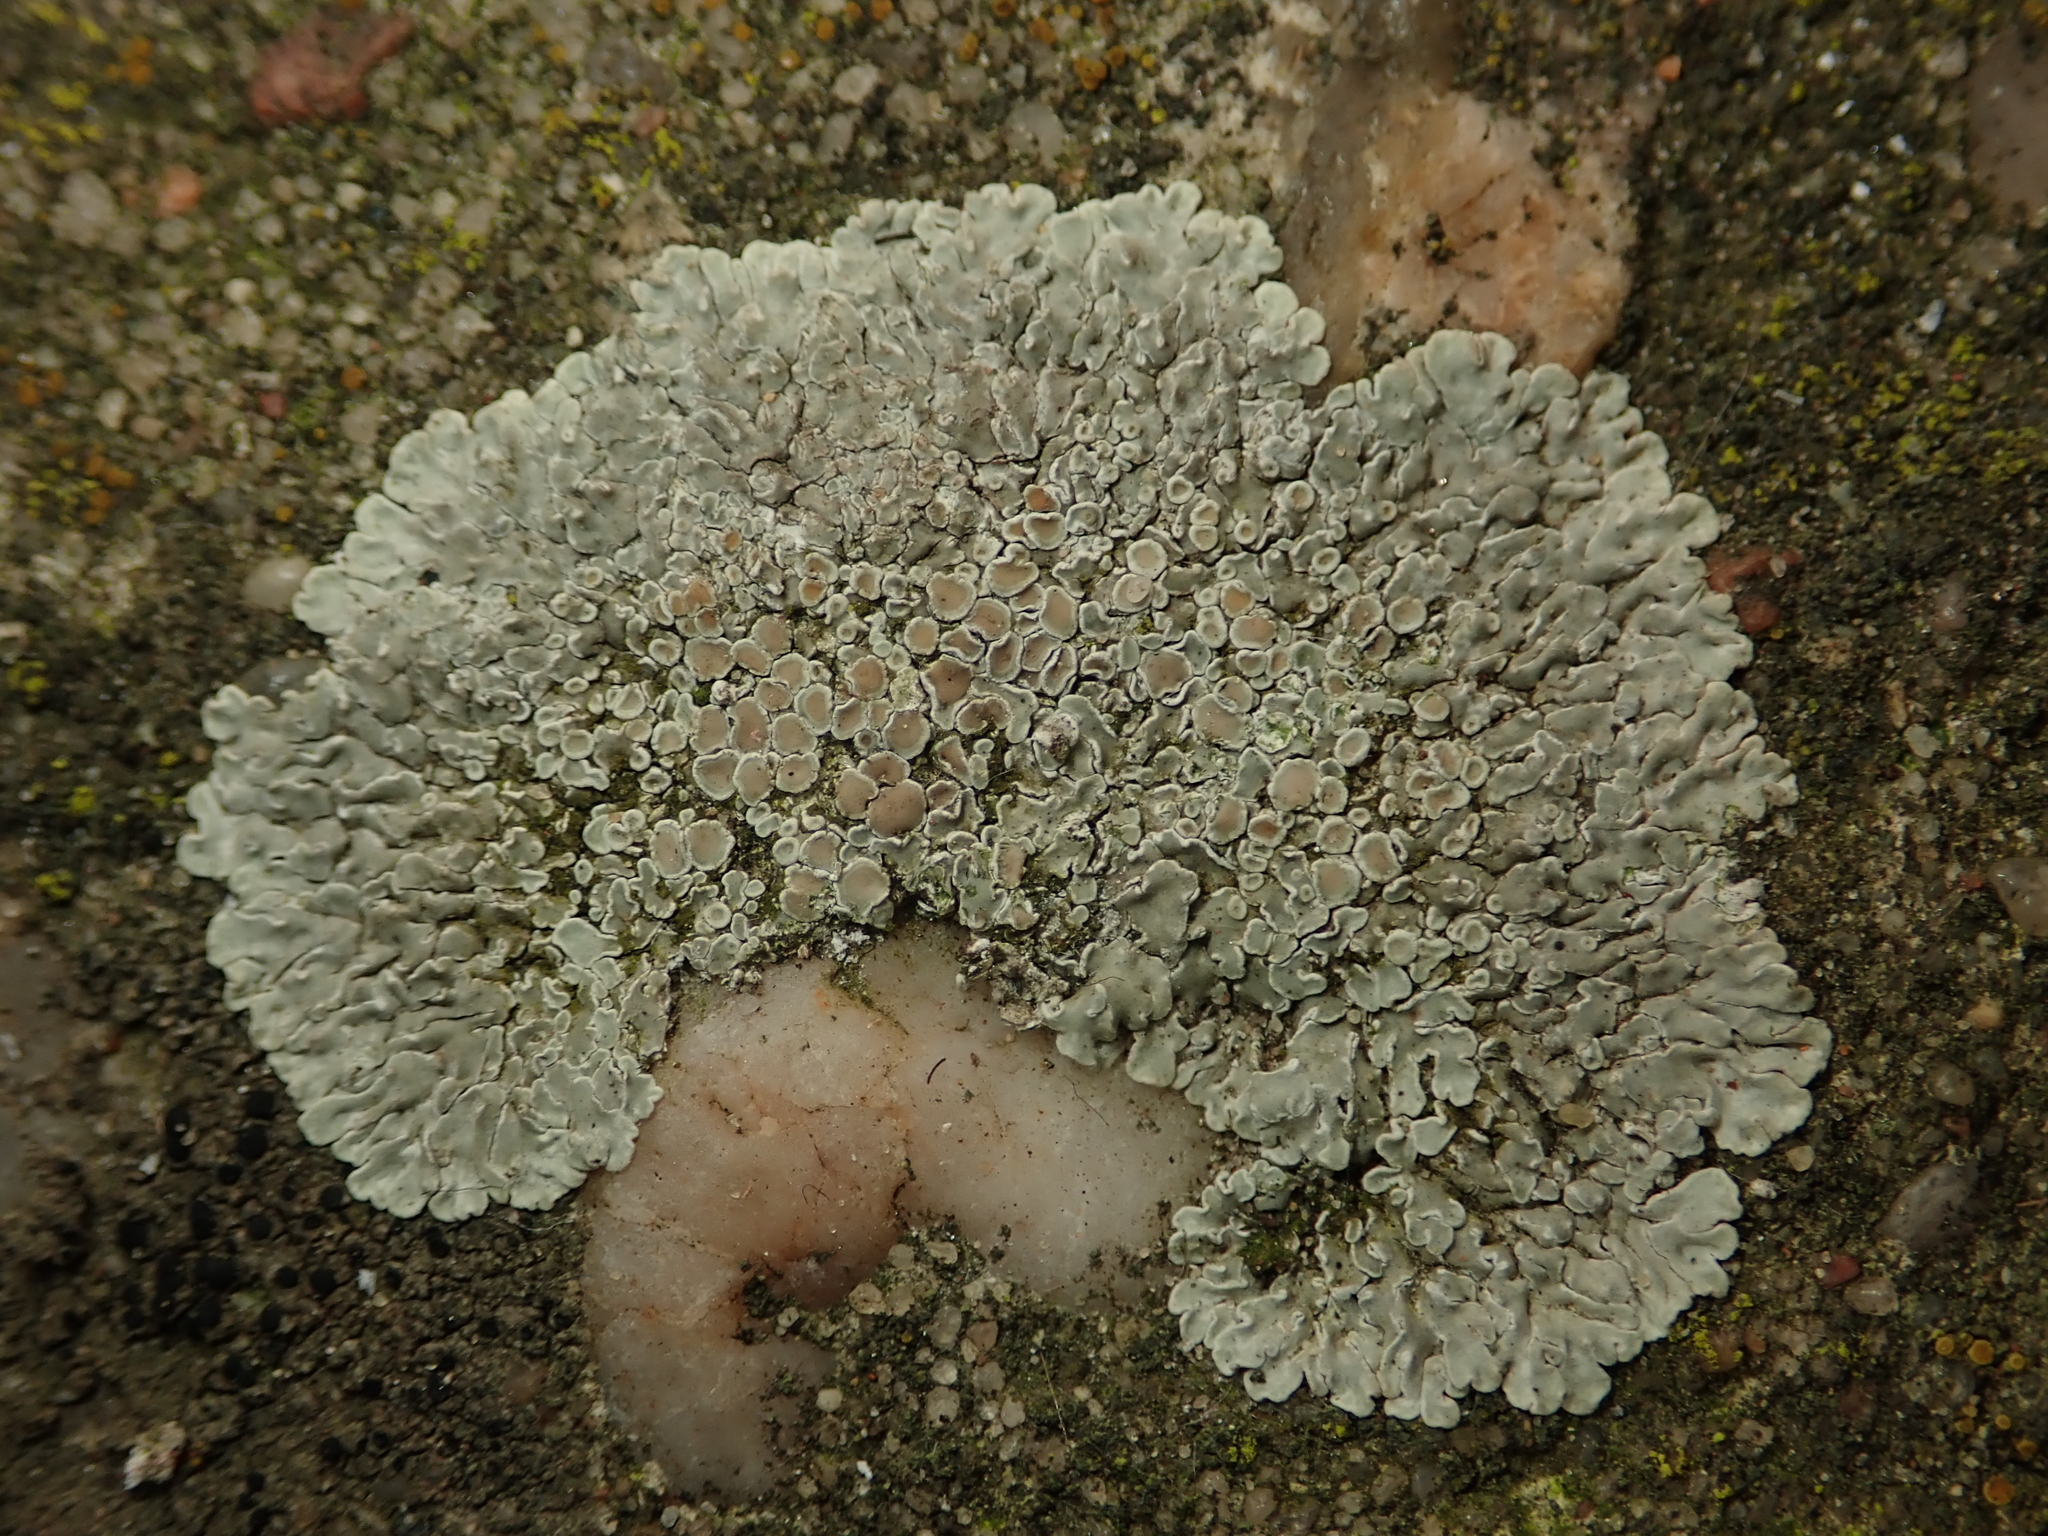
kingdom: Fungi
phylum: Ascomycota
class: Lecanoromycetes
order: Lecanorales
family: Lecanoraceae
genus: Protoparmeliopsis
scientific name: Protoparmeliopsis muralis
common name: Stonewall rim lichen
